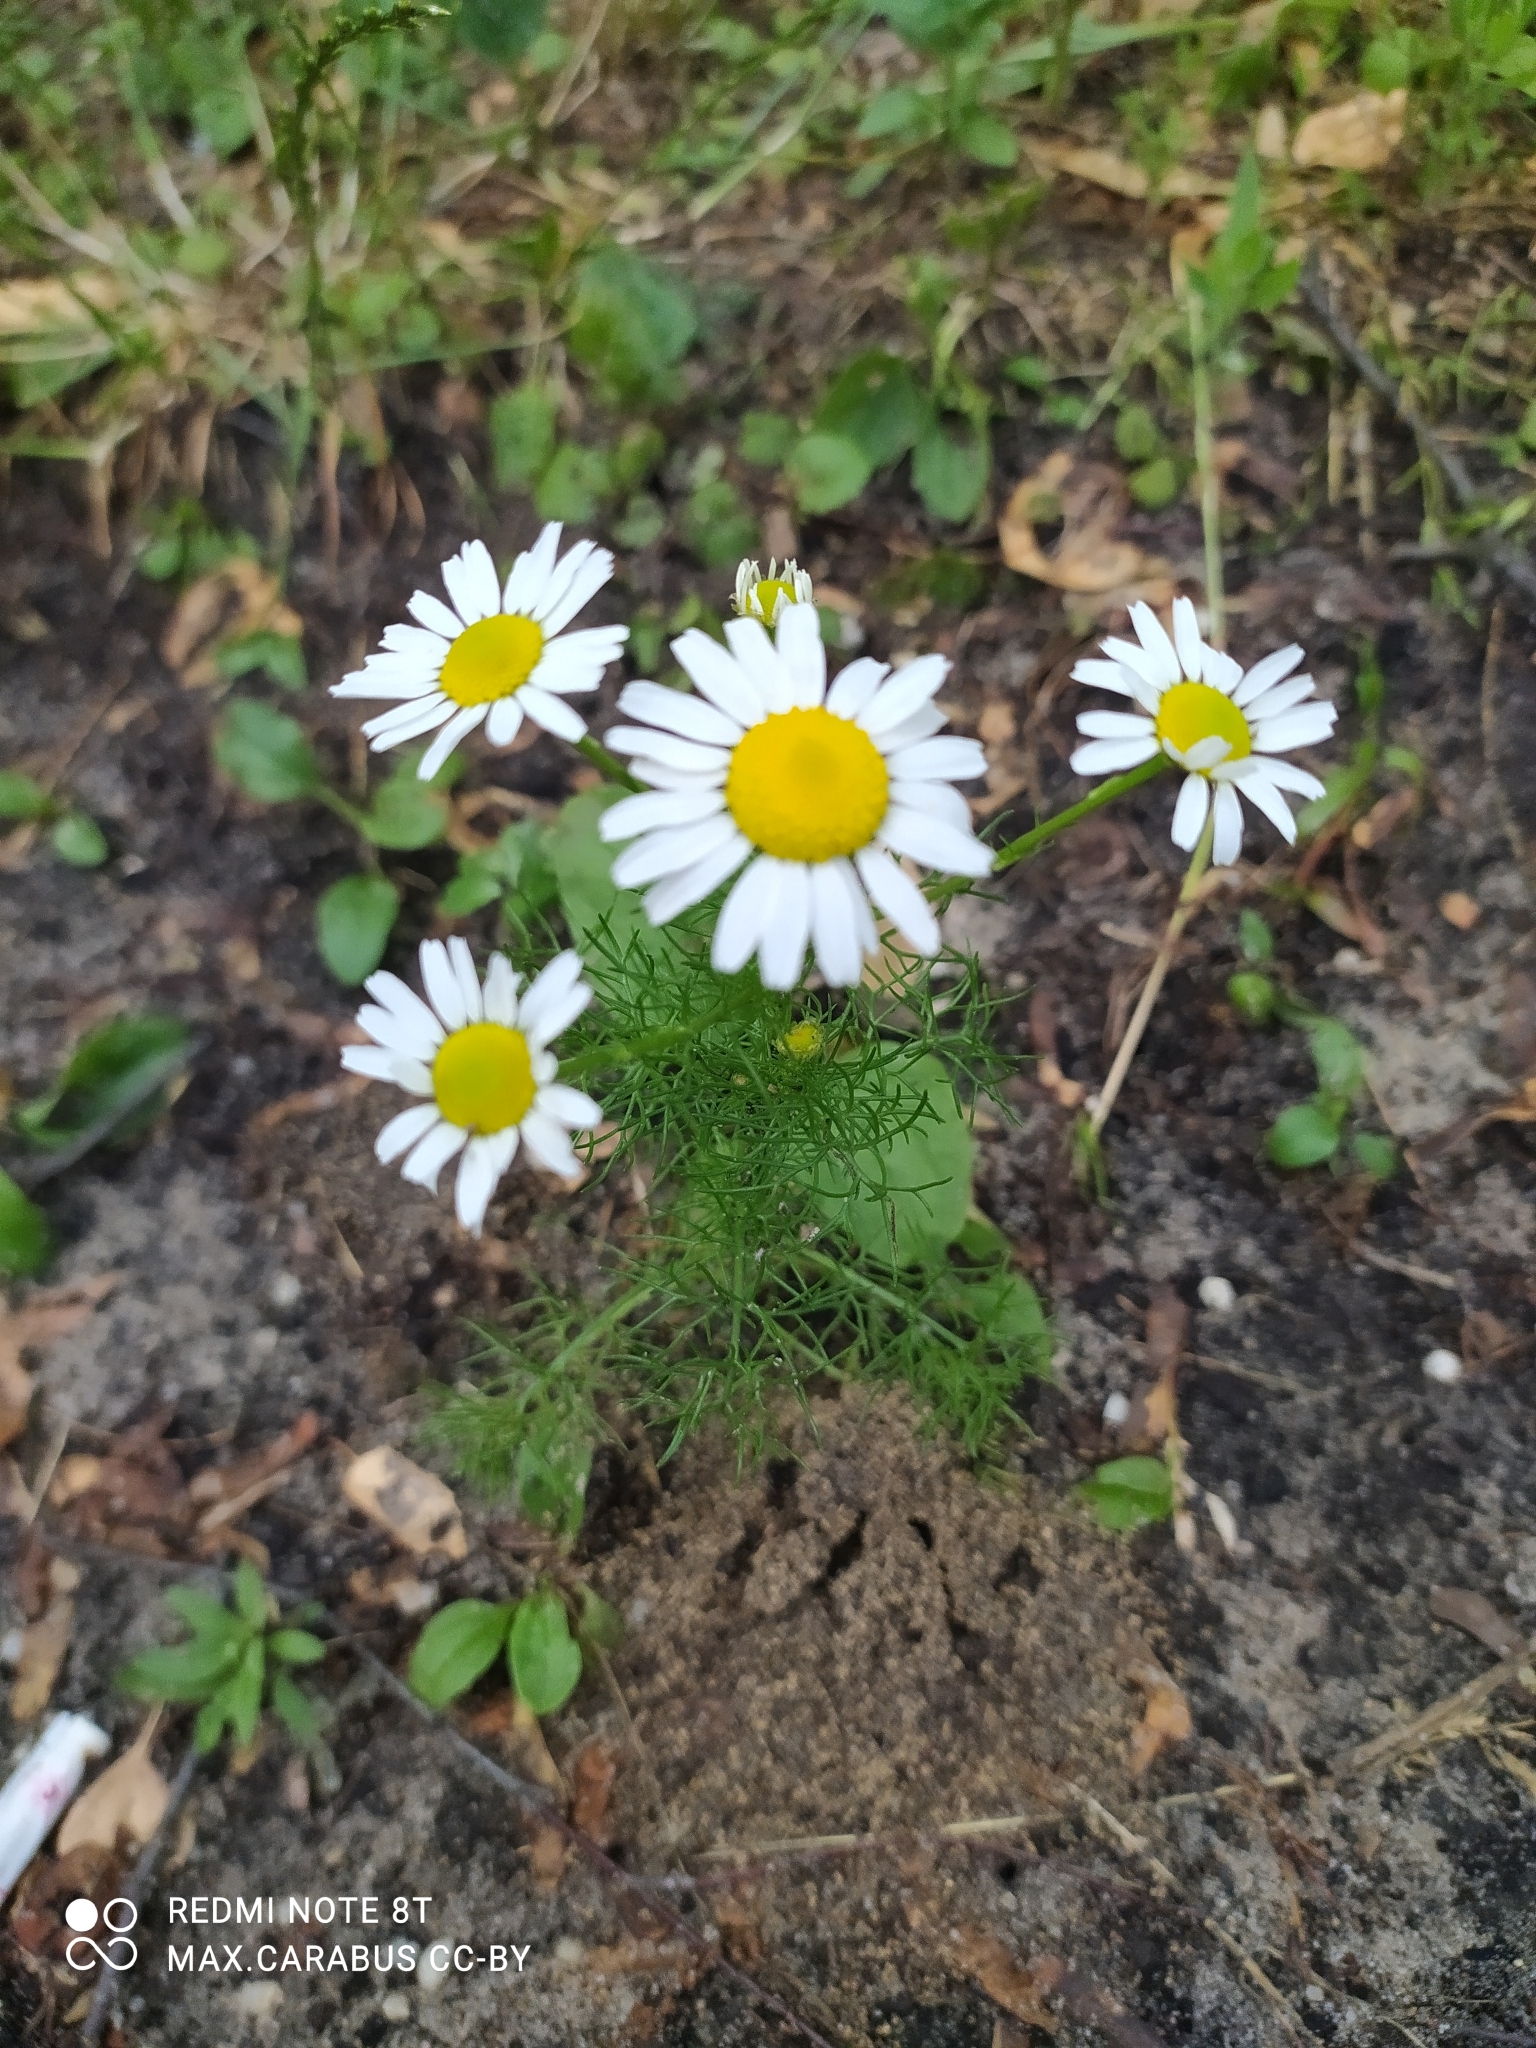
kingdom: Plantae
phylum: Tracheophyta
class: Magnoliopsida
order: Asterales
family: Asteraceae
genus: Tripleurospermum
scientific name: Tripleurospermum inodorum
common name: Scentless mayweed
